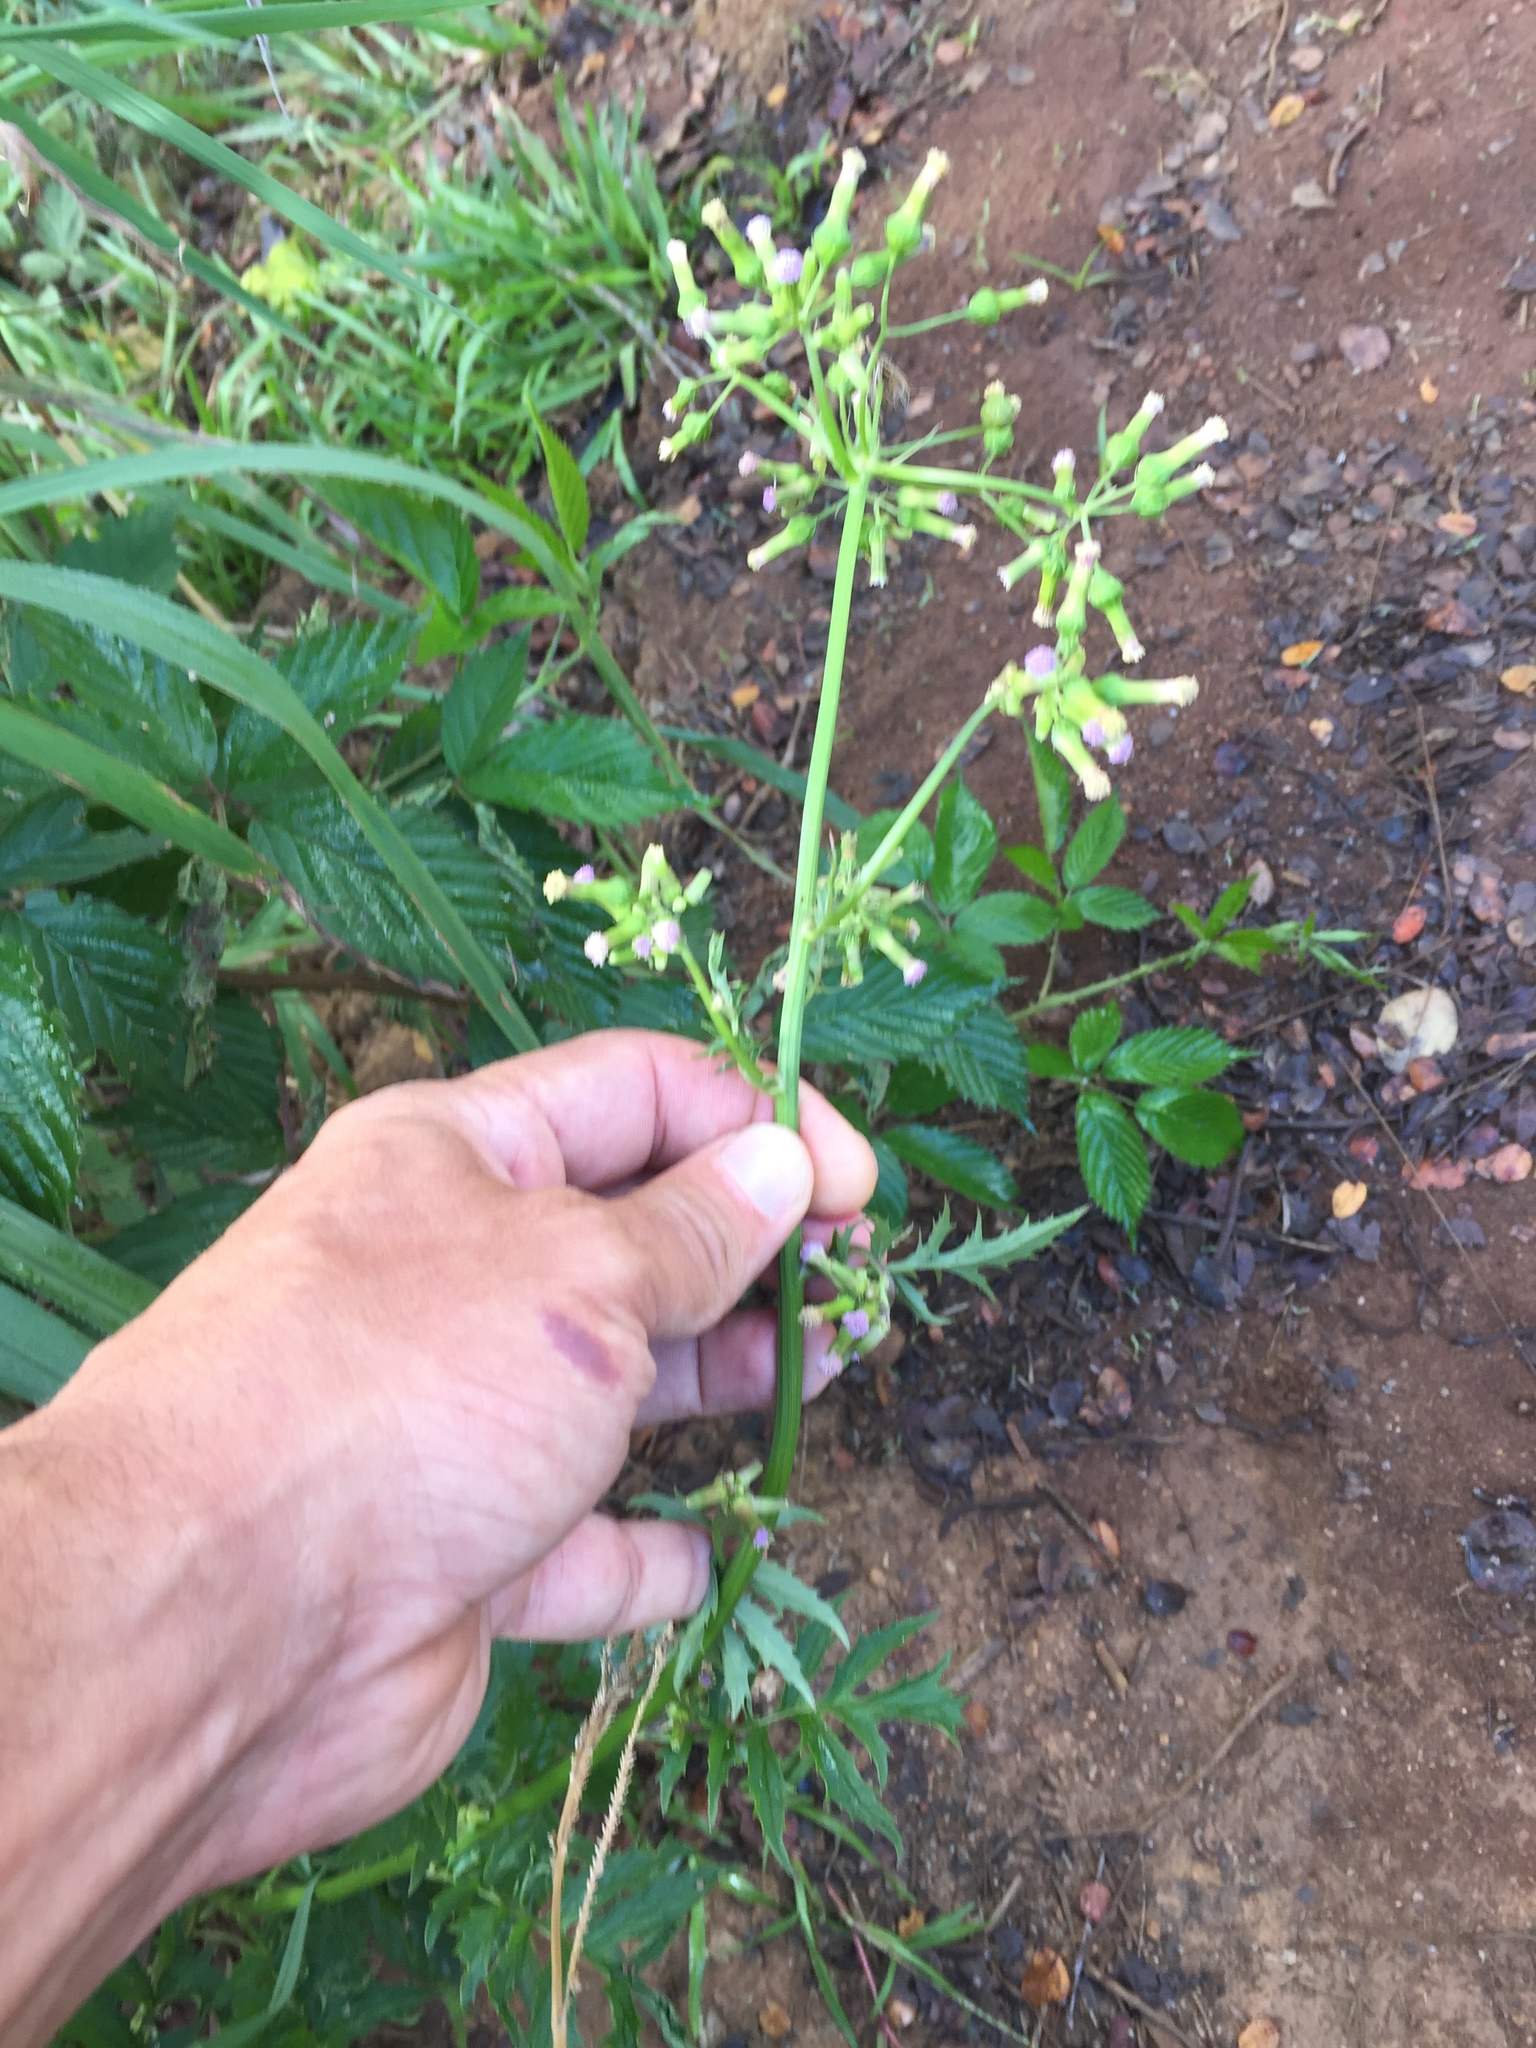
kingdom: Plantae
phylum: Tracheophyta
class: Magnoliopsida
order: Asterales
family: Asteraceae
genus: Erechtites
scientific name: Erechtites valerianifolius
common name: Tropical burnweed
